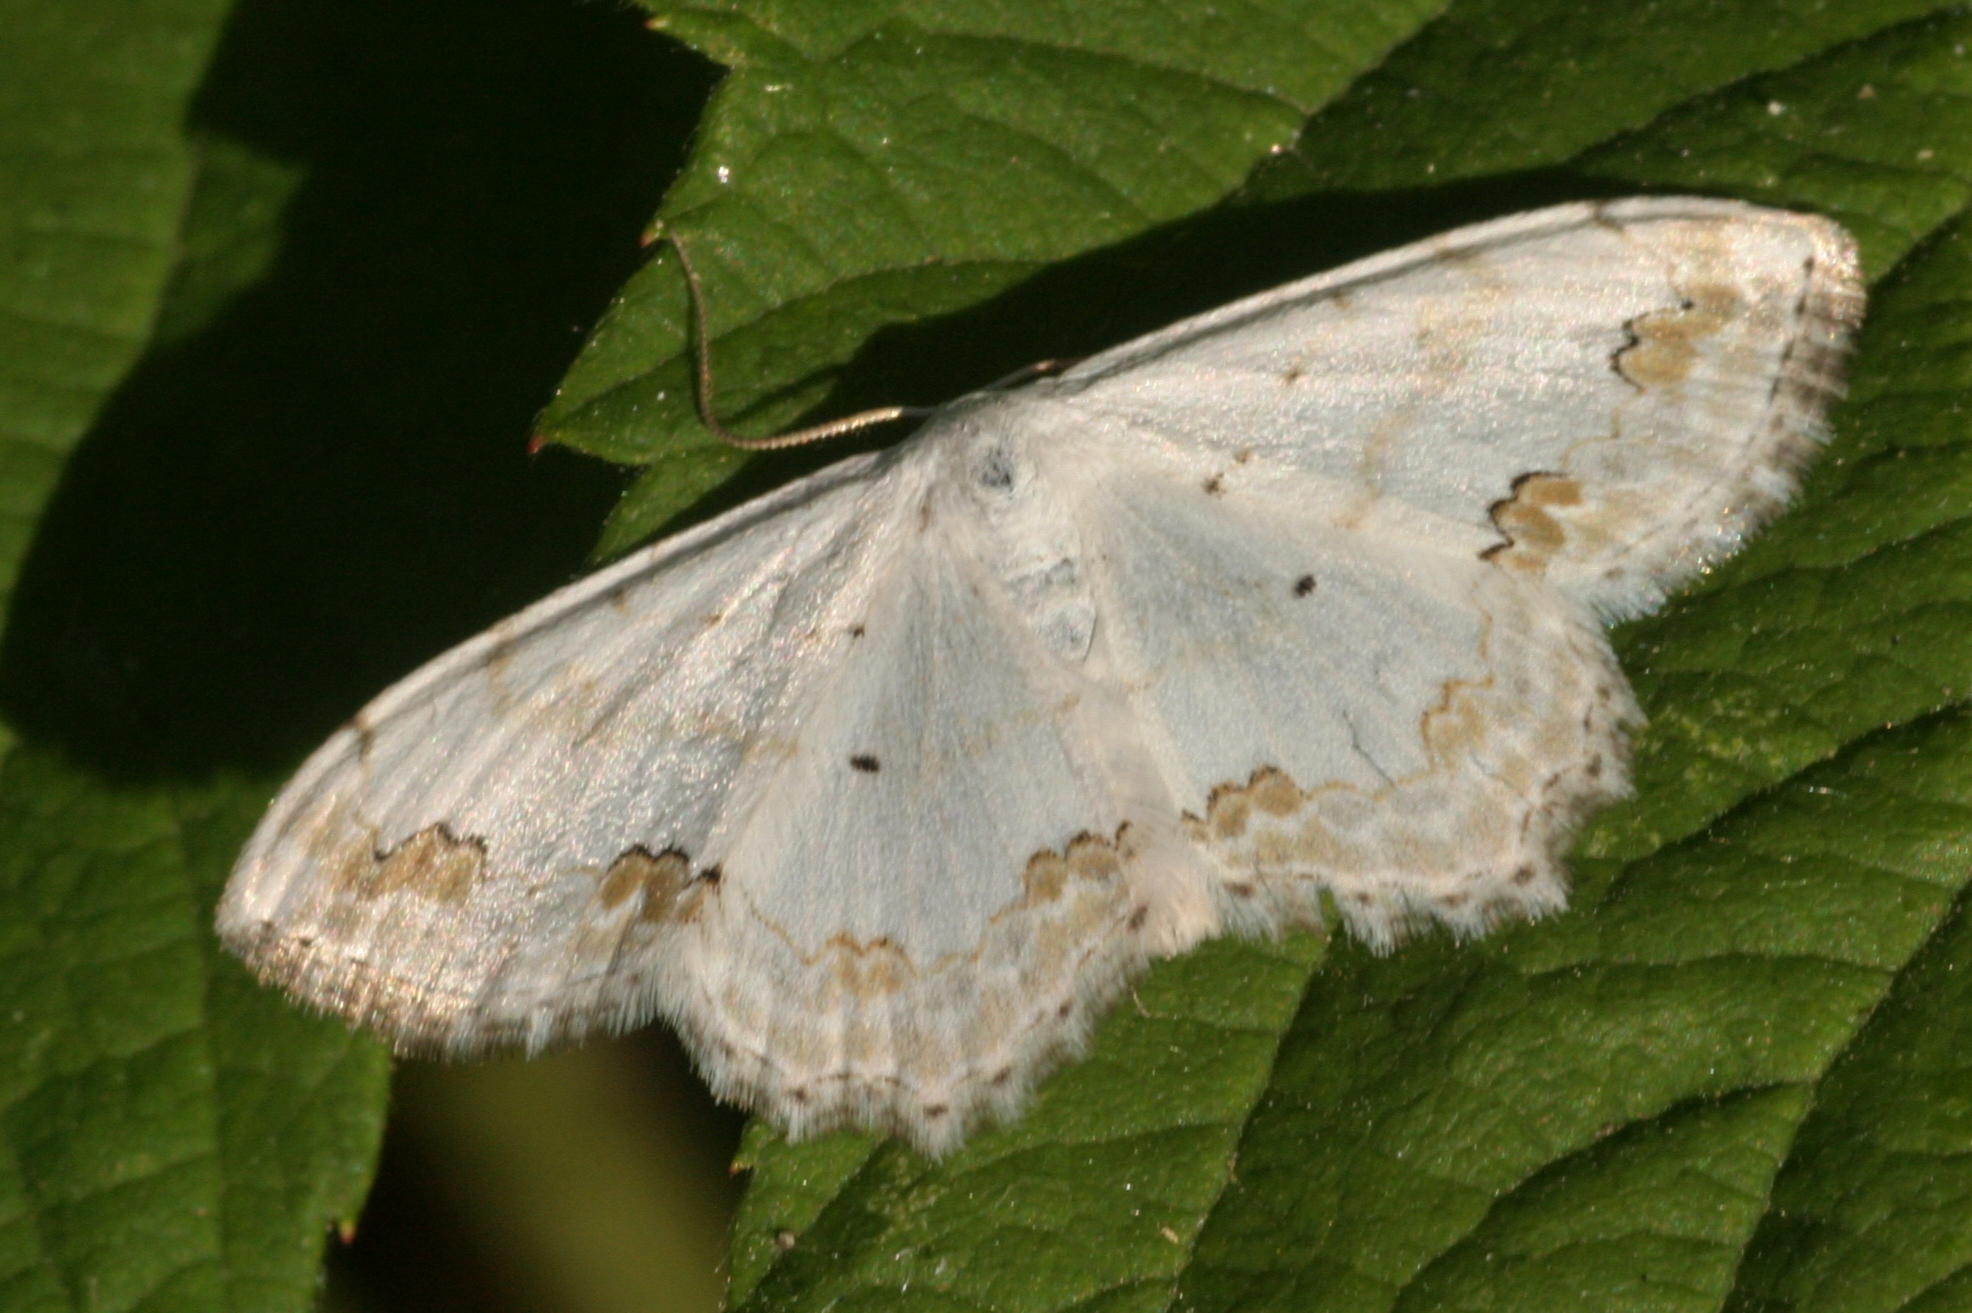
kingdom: Animalia
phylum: Arthropoda
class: Insecta
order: Lepidoptera
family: Geometridae
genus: Scopula
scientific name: Scopula ornata
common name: Lace border
